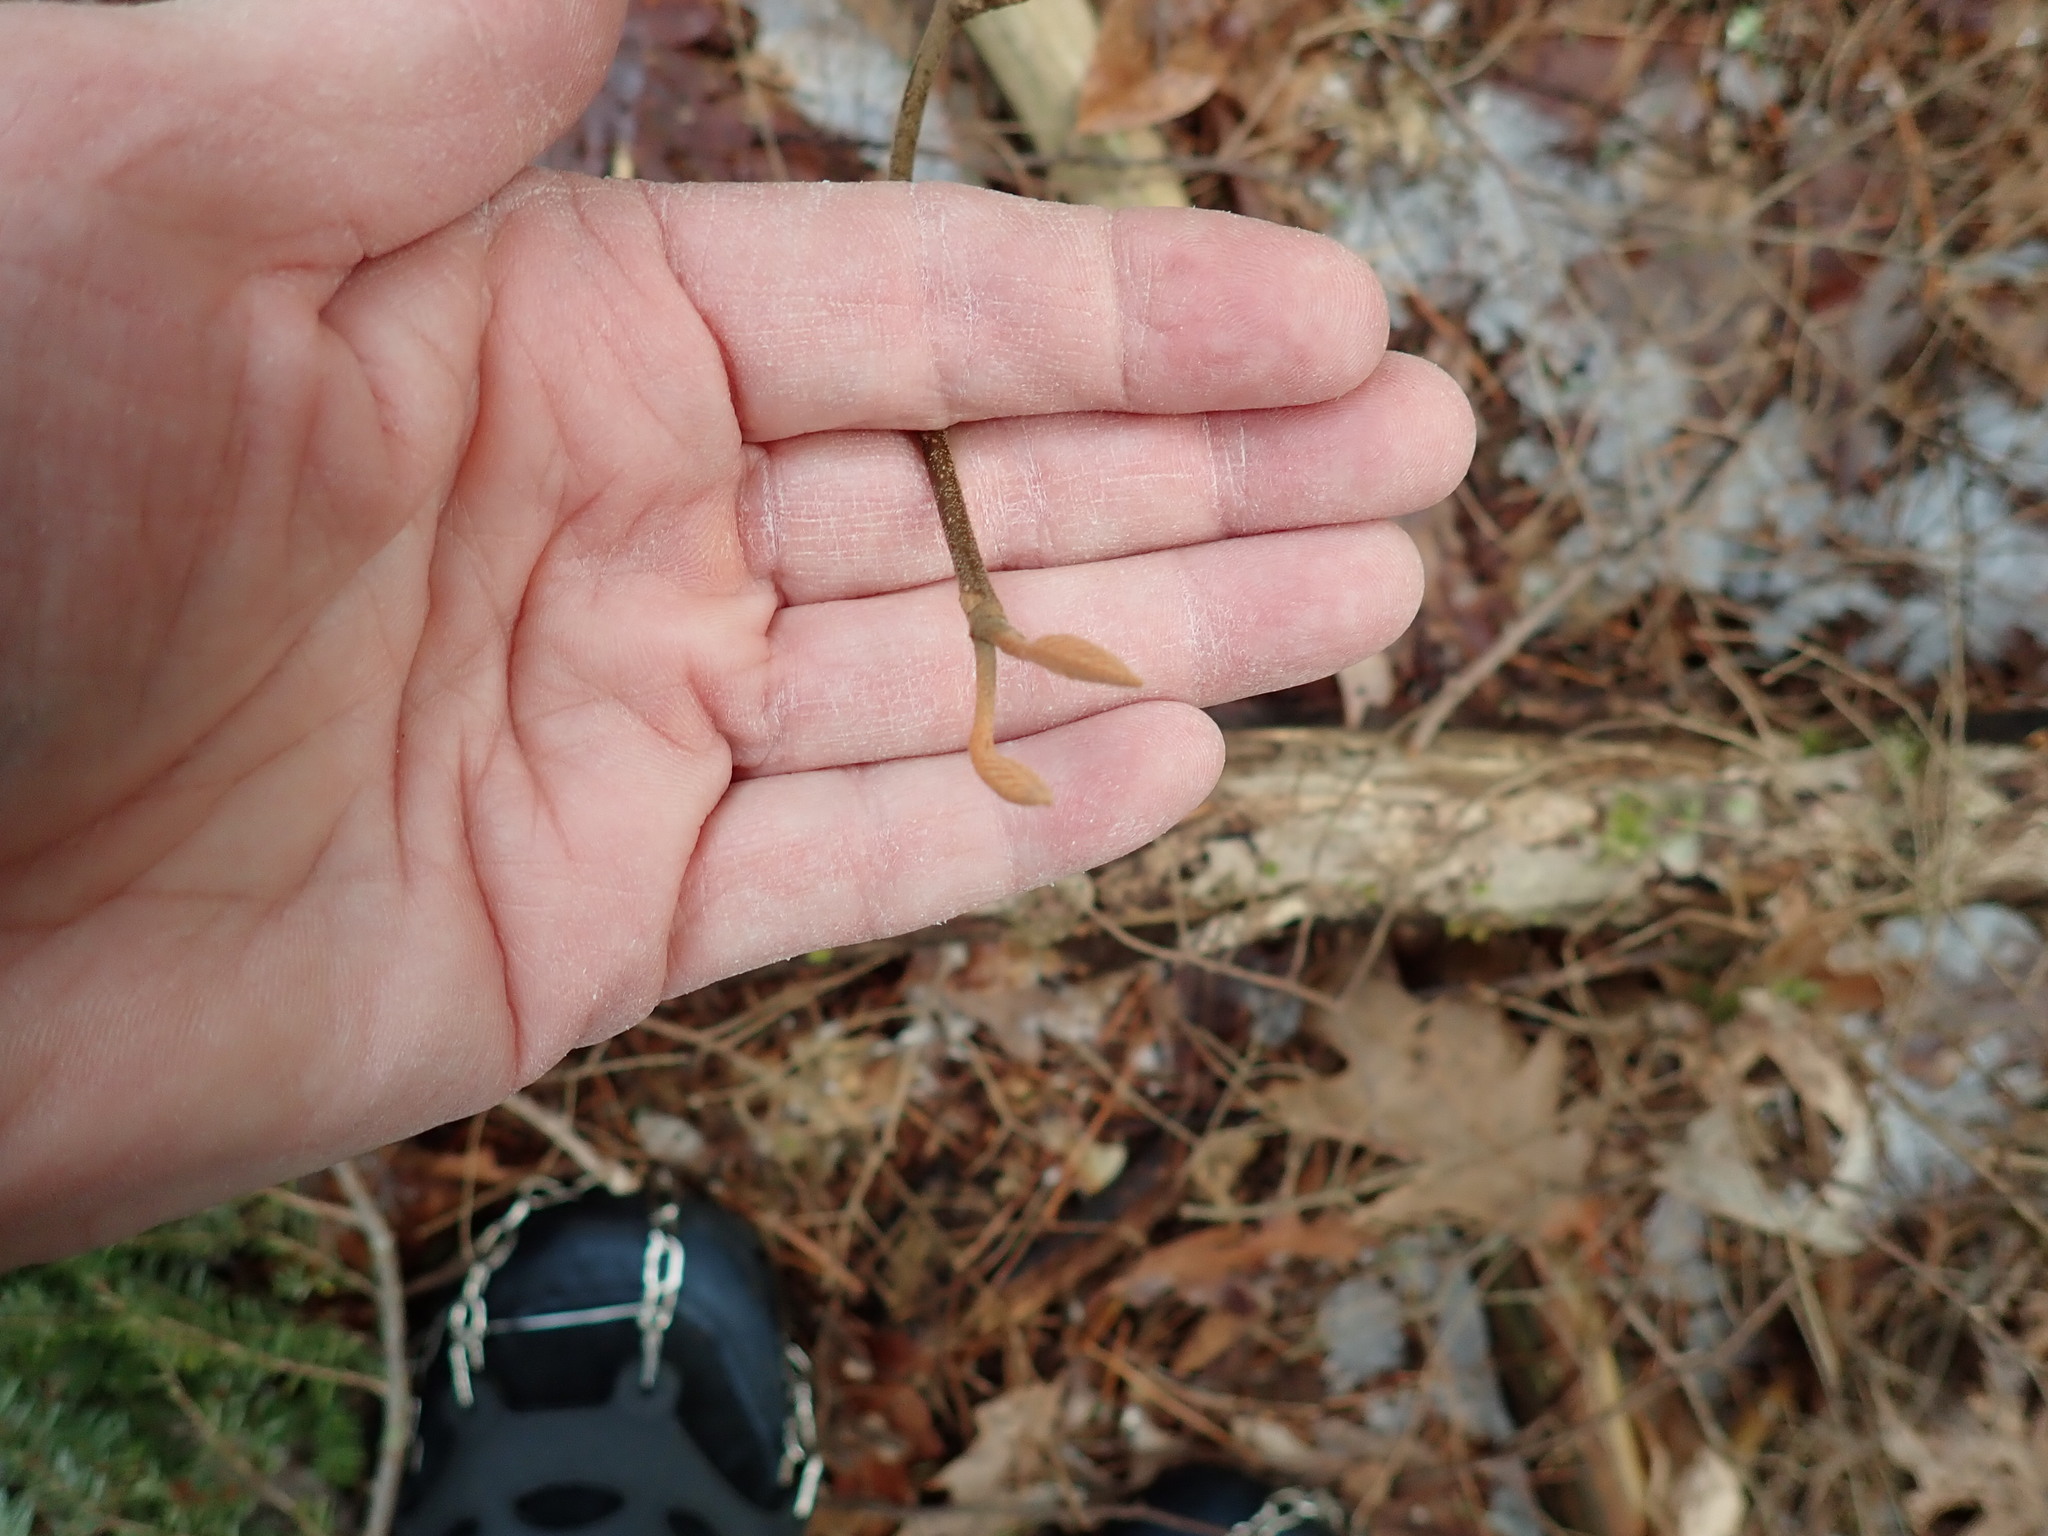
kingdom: Plantae
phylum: Tracheophyta
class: Magnoliopsida
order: Dipsacales
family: Viburnaceae
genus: Viburnum
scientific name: Viburnum lantanoides
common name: Hobblebush
